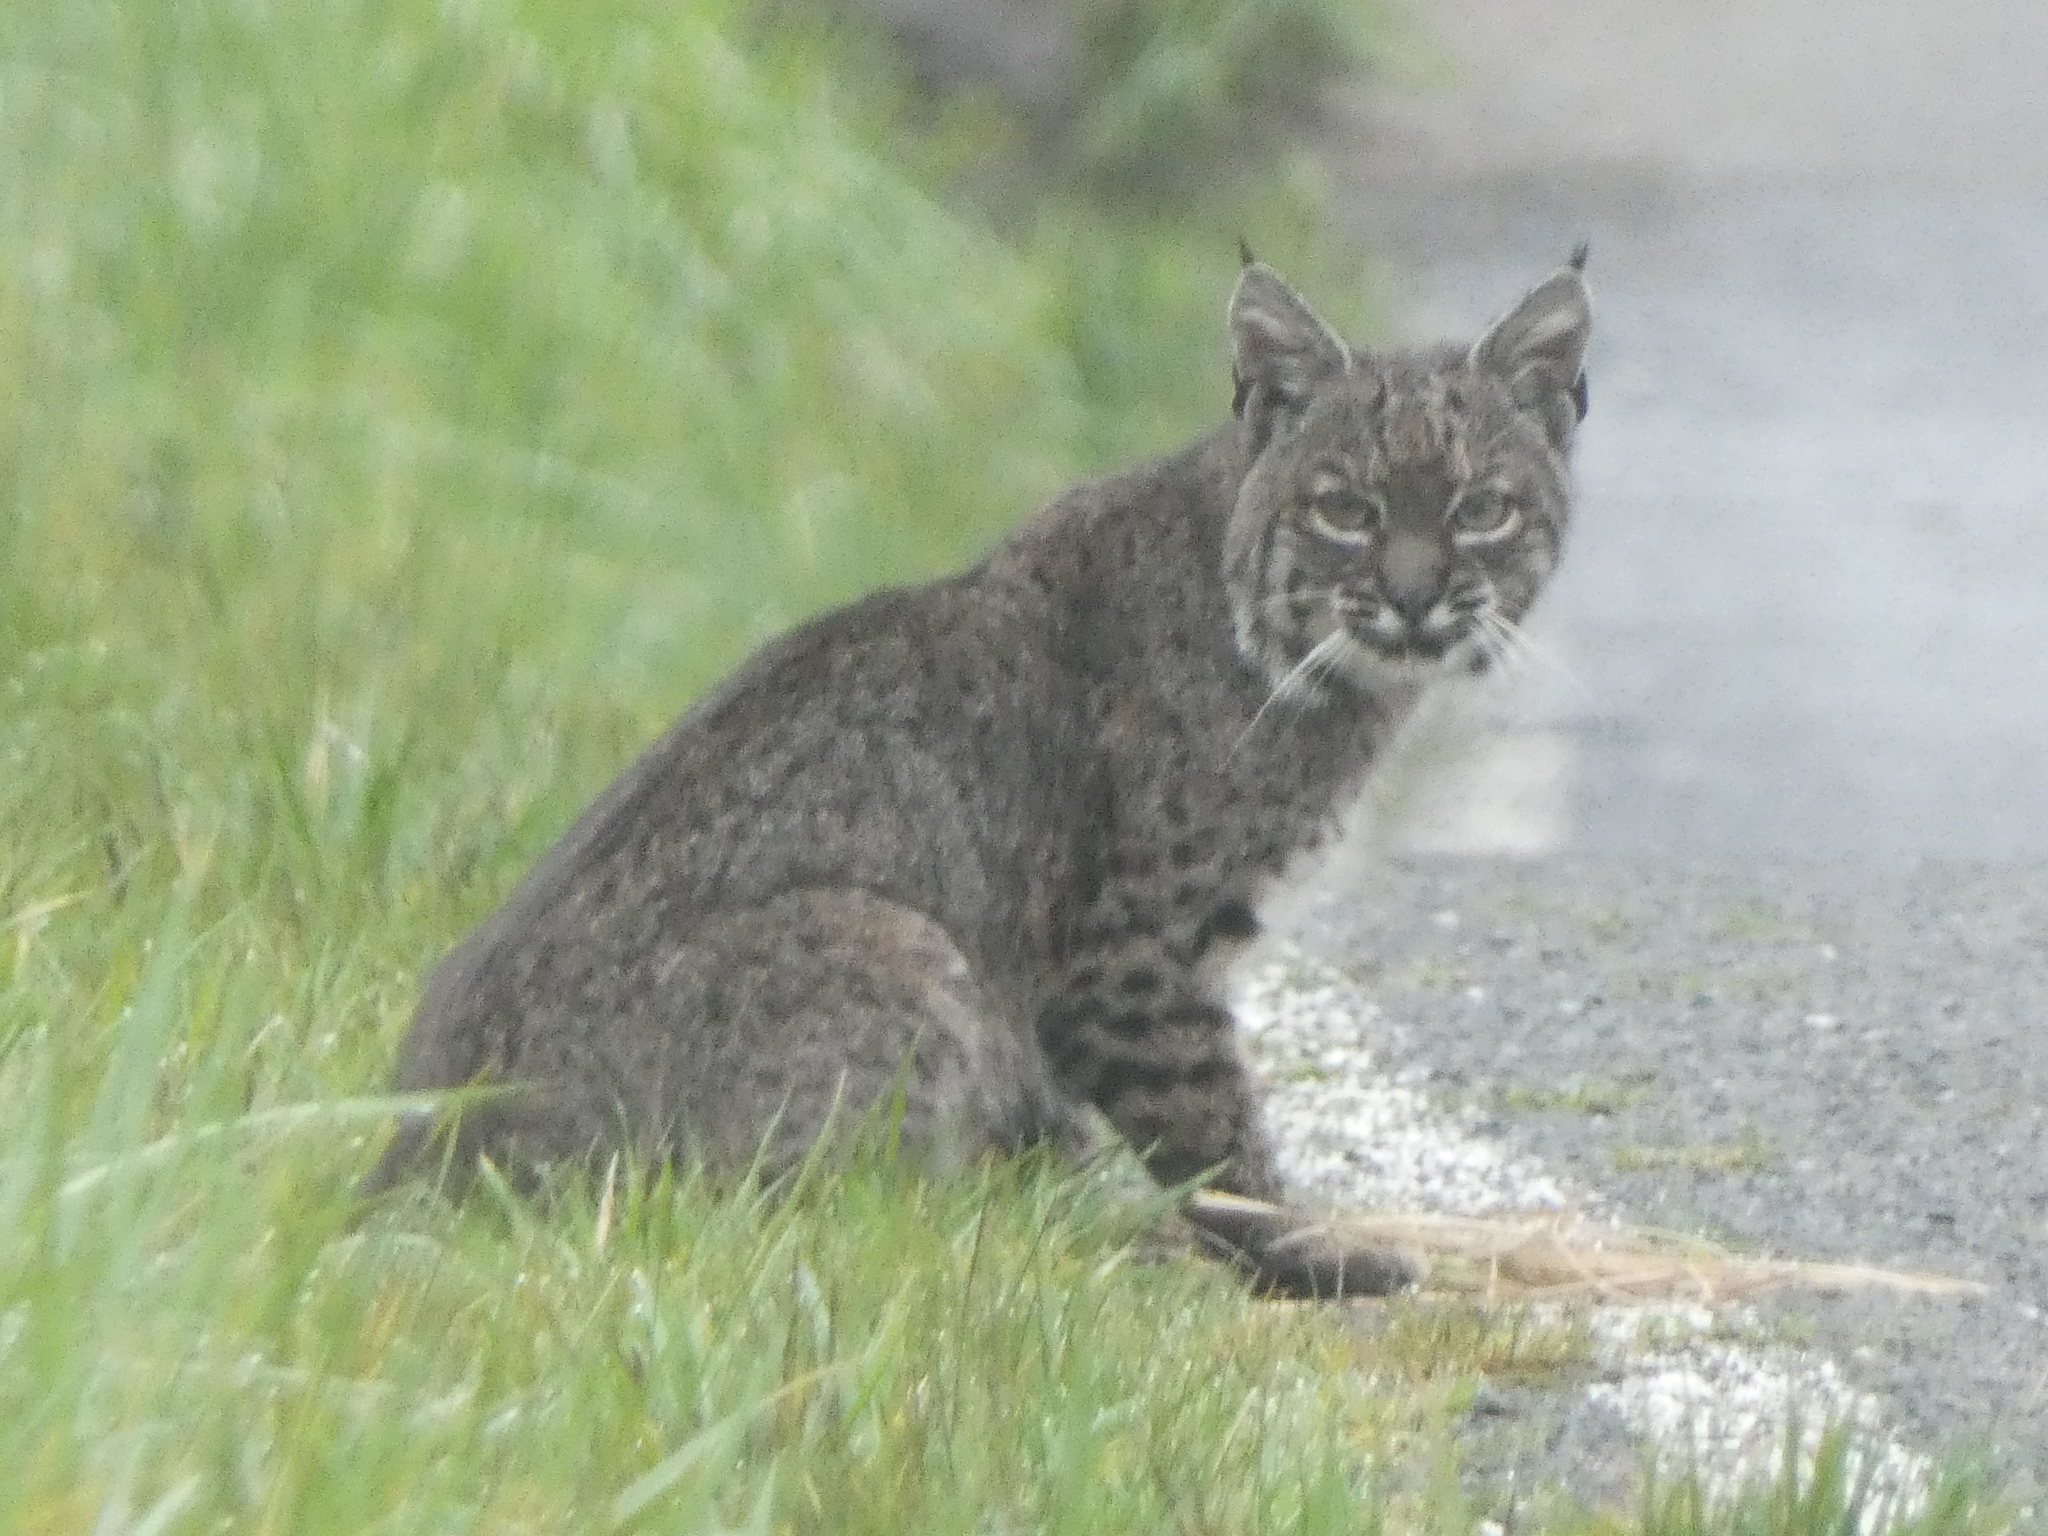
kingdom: Animalia
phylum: Chordata
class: Mammalia
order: Carnivora
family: Felidae
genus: Lynx
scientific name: Lynx rufus
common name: Bobcat
